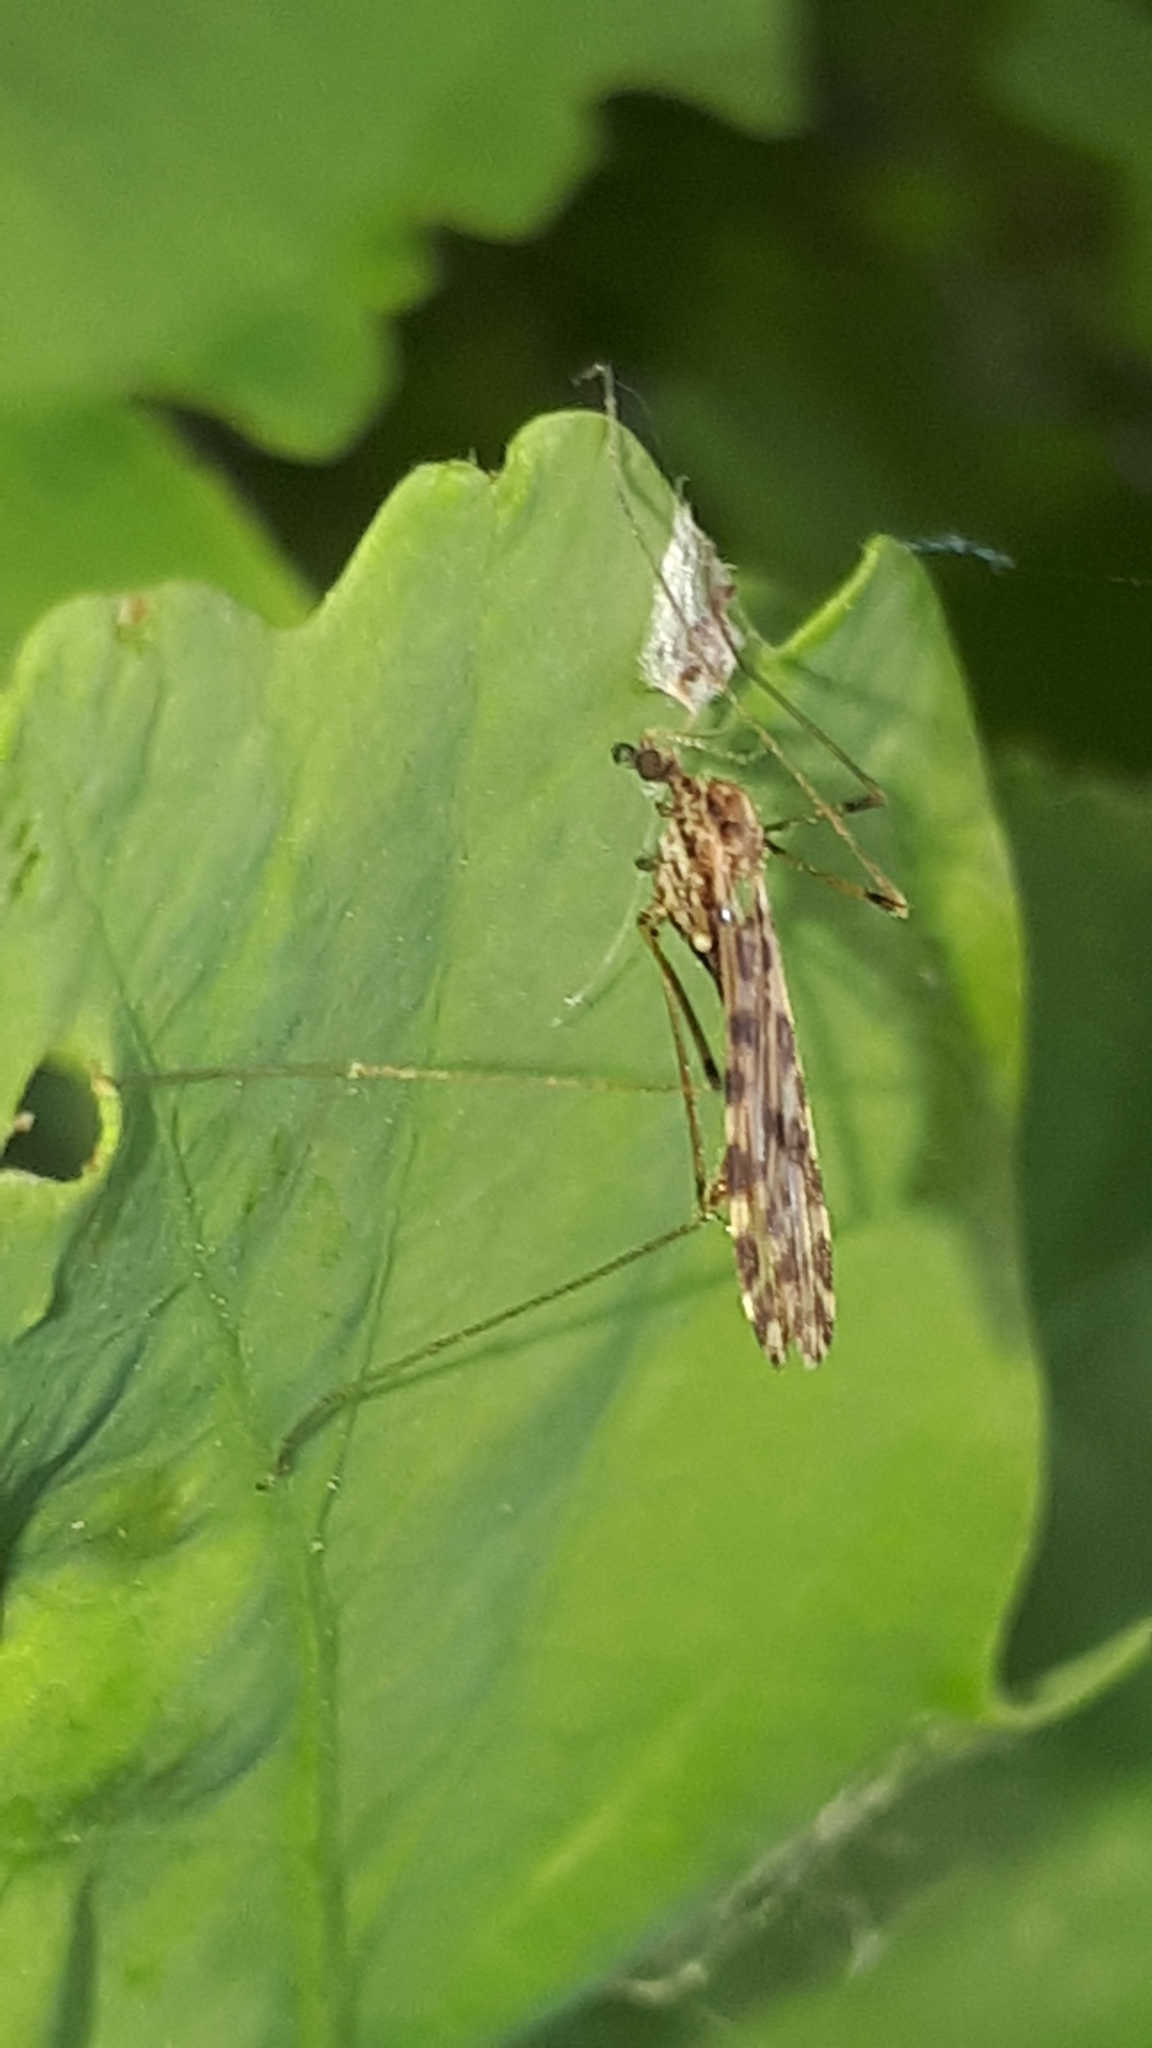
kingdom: Animalia
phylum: Arthropoda
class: Insecta
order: Diptera
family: Limoniidae
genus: Ilisia
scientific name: Ilisia maculata
